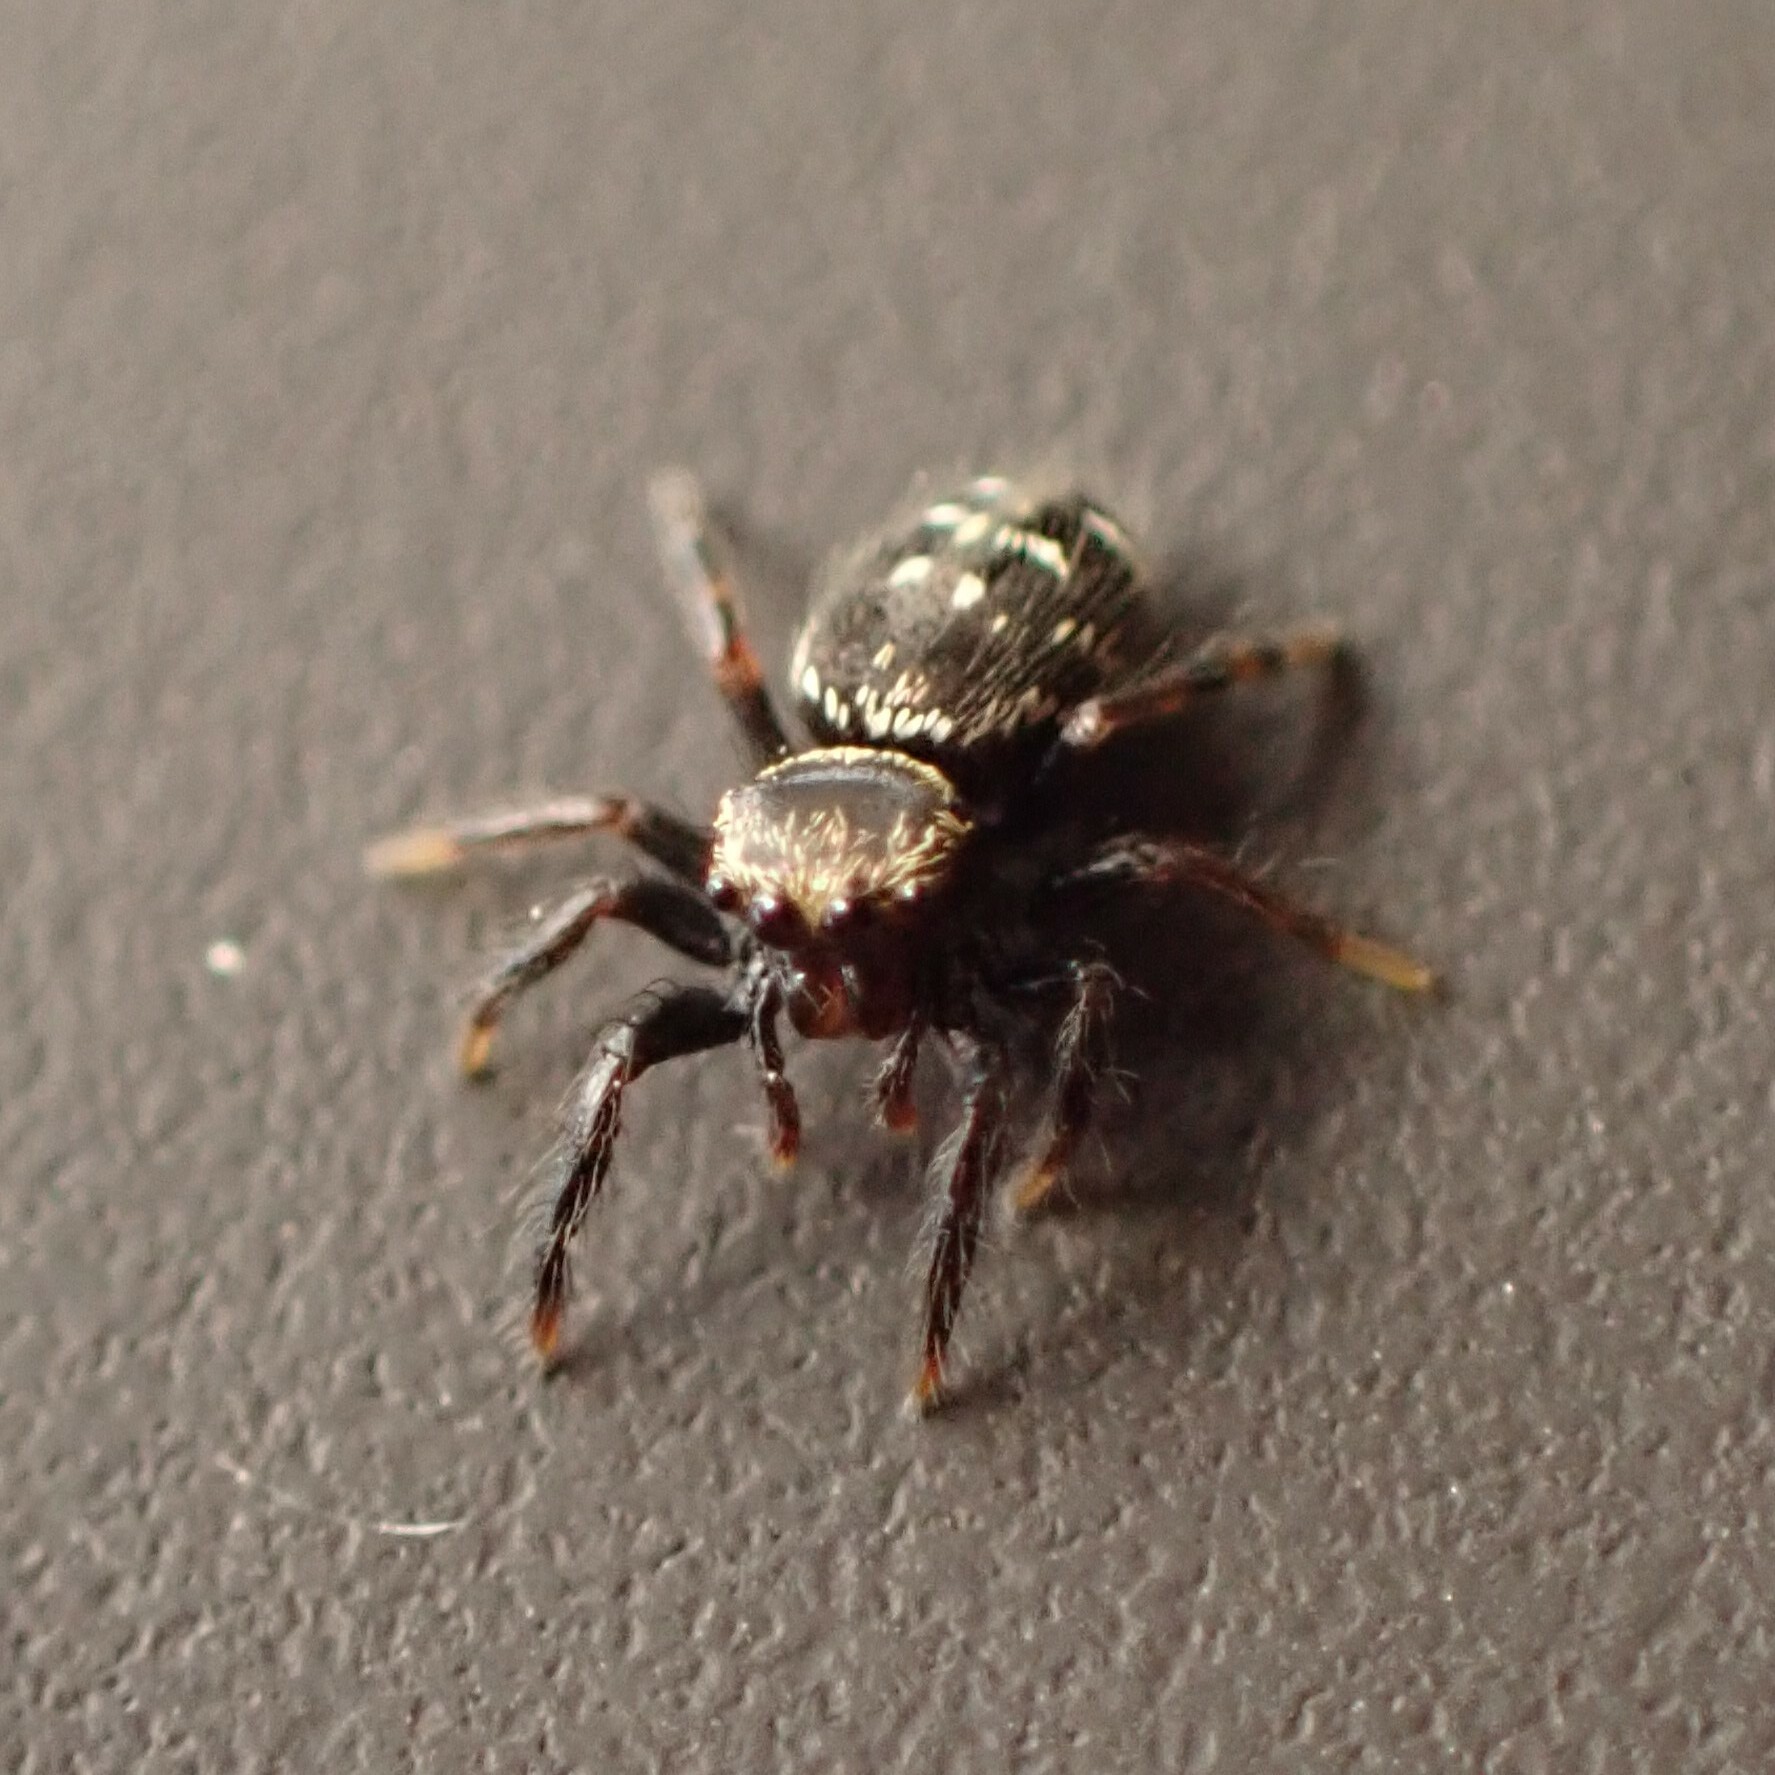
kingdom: Animalia
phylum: Arthropoda
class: Arachnida
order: Araneae
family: Salticidae
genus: Paraphidippus
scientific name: Paraphidippus aurantius
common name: Jumping spiders
